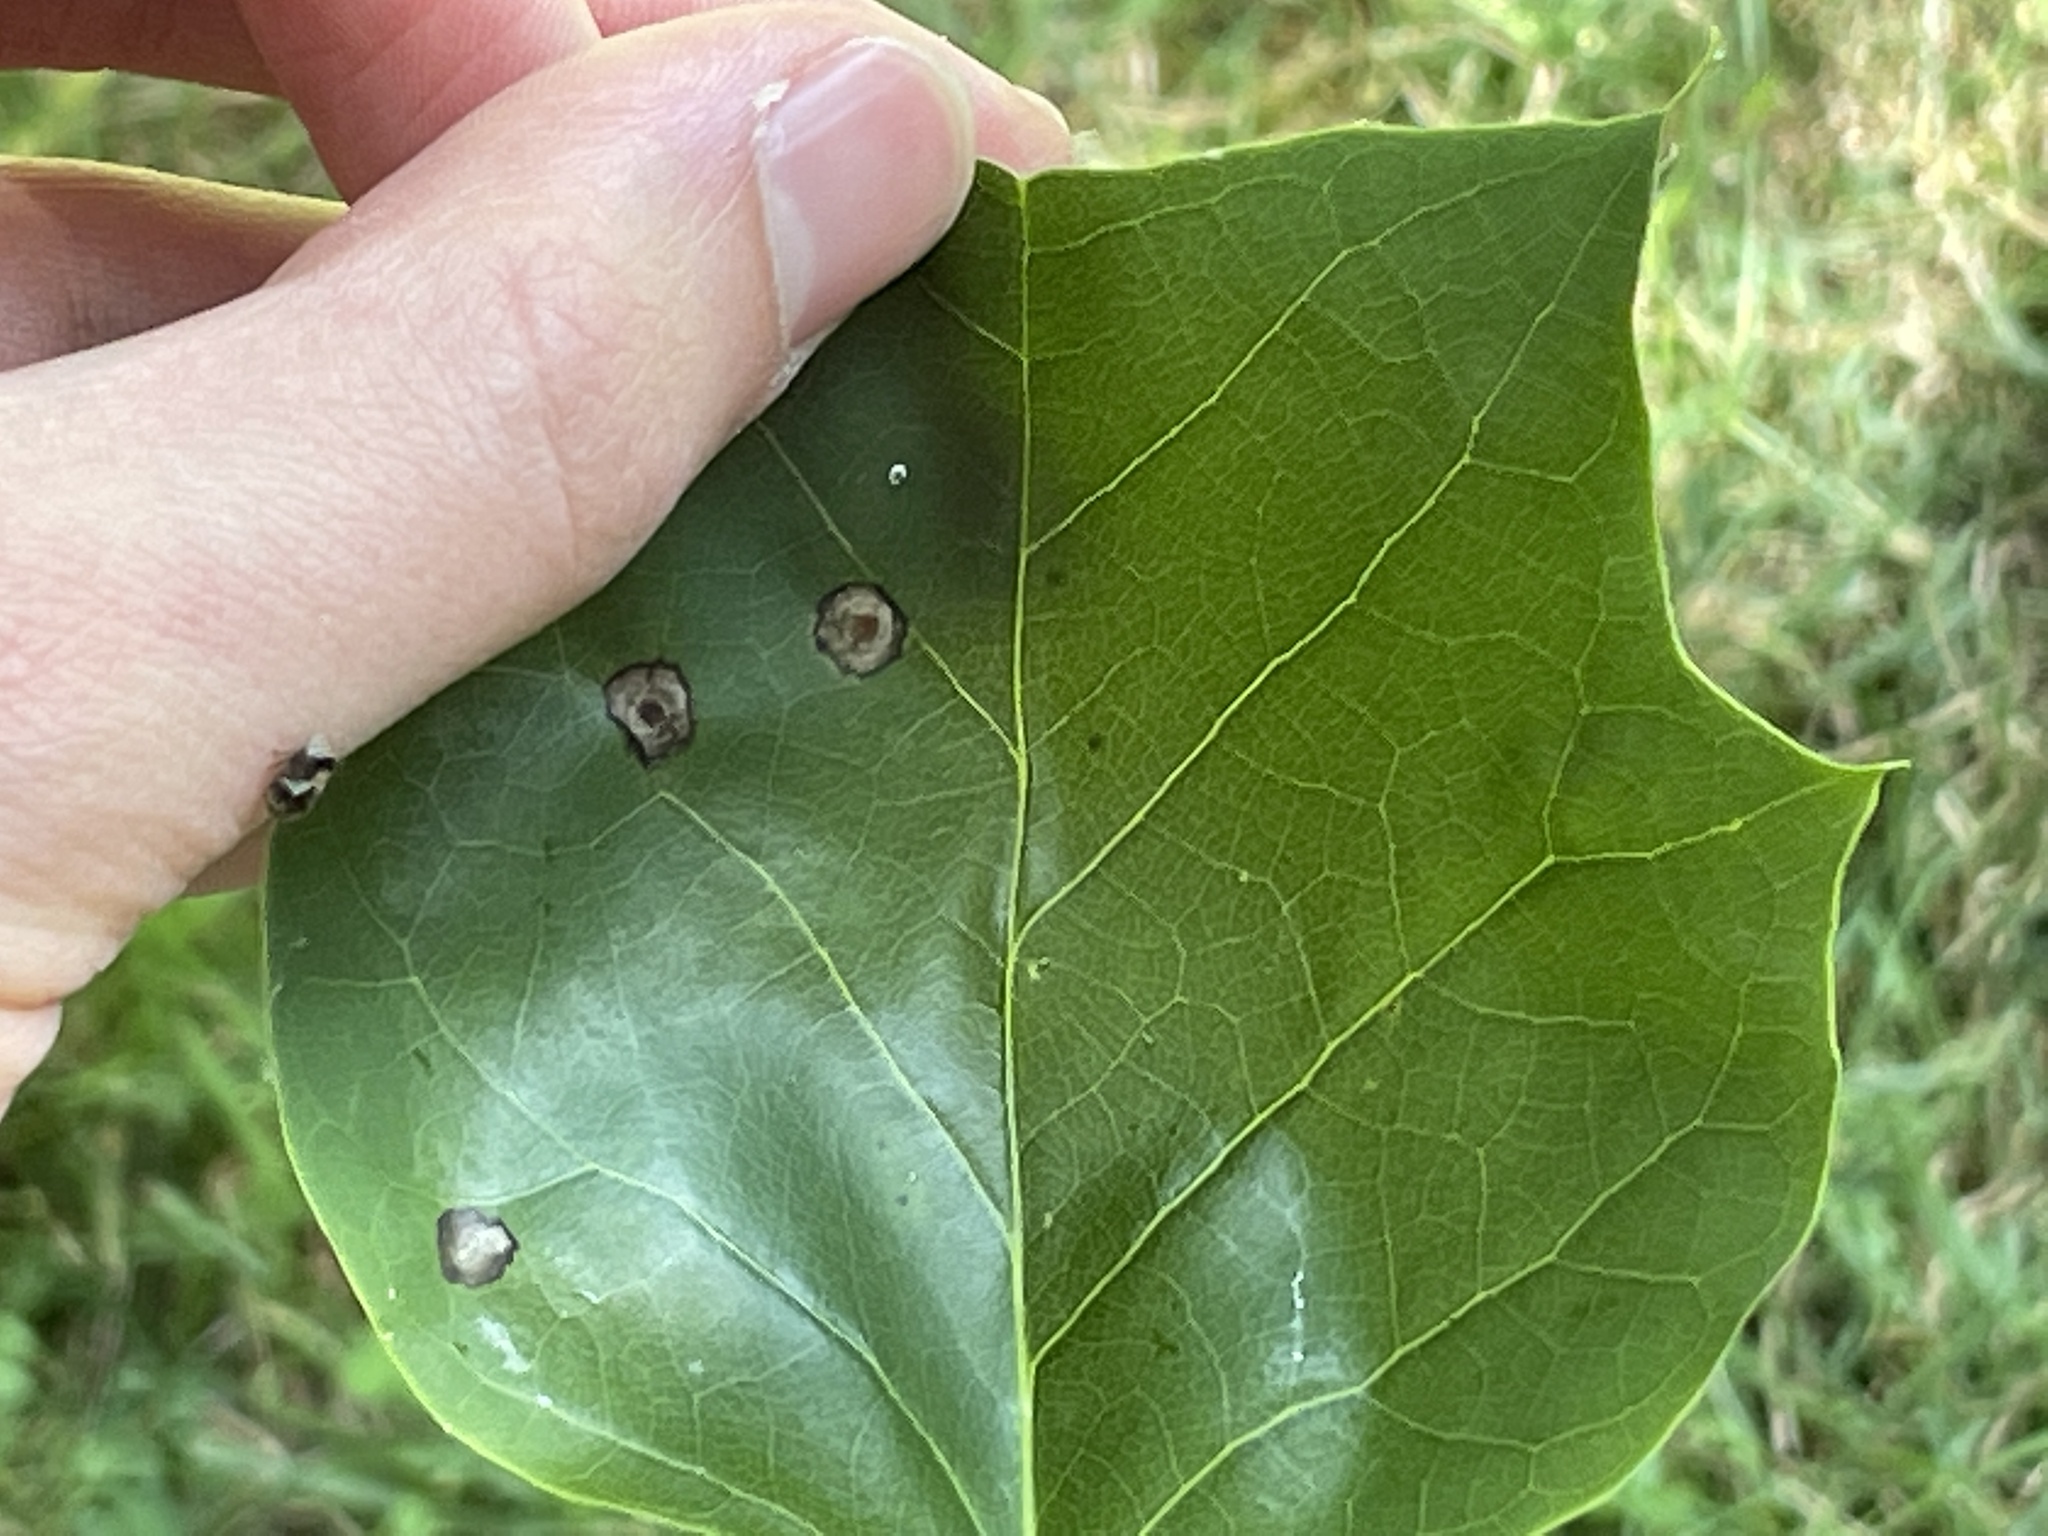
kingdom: Animalia
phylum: Arthropoda
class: Insecta
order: Diptera
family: Cecidomyiidae
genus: Resseliella
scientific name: Resseliella liriodendri
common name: Tulip tree leaf spot gall midge
